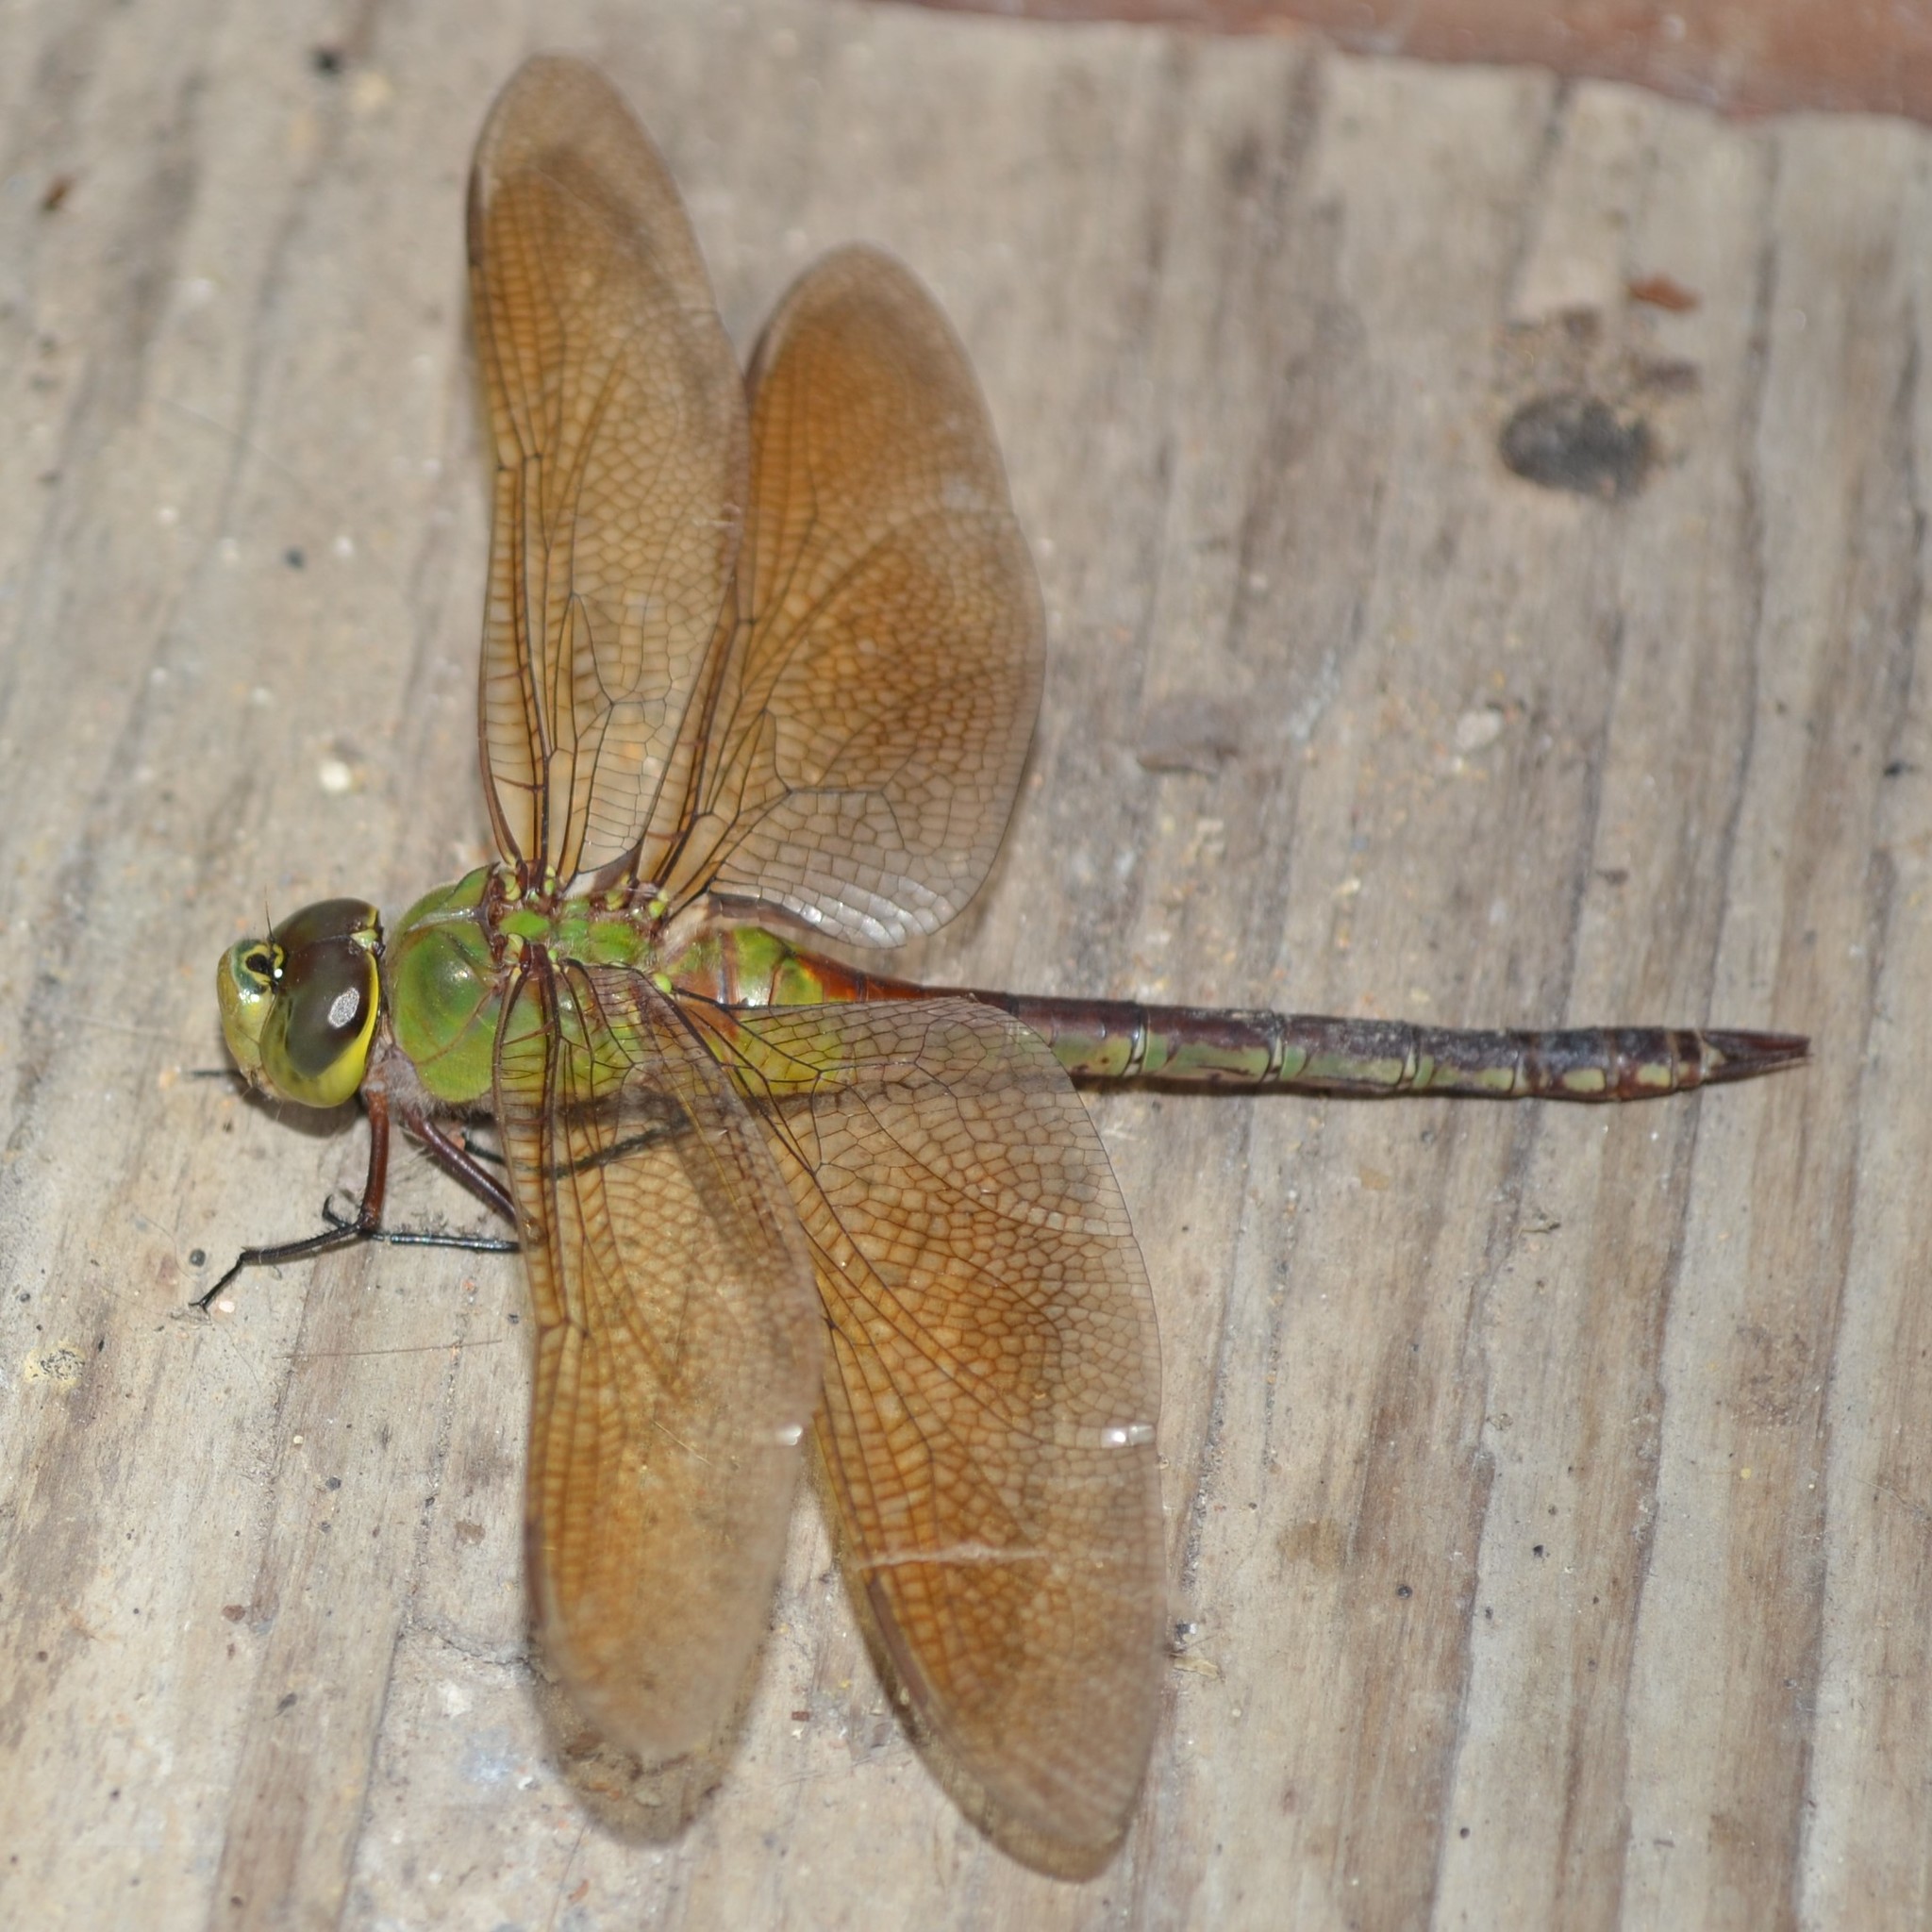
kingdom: Animalia
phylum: Arthropoda
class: Insecta
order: Odonata
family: Aeshnidae
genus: Anax
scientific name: Anax junius
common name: Common green darner
